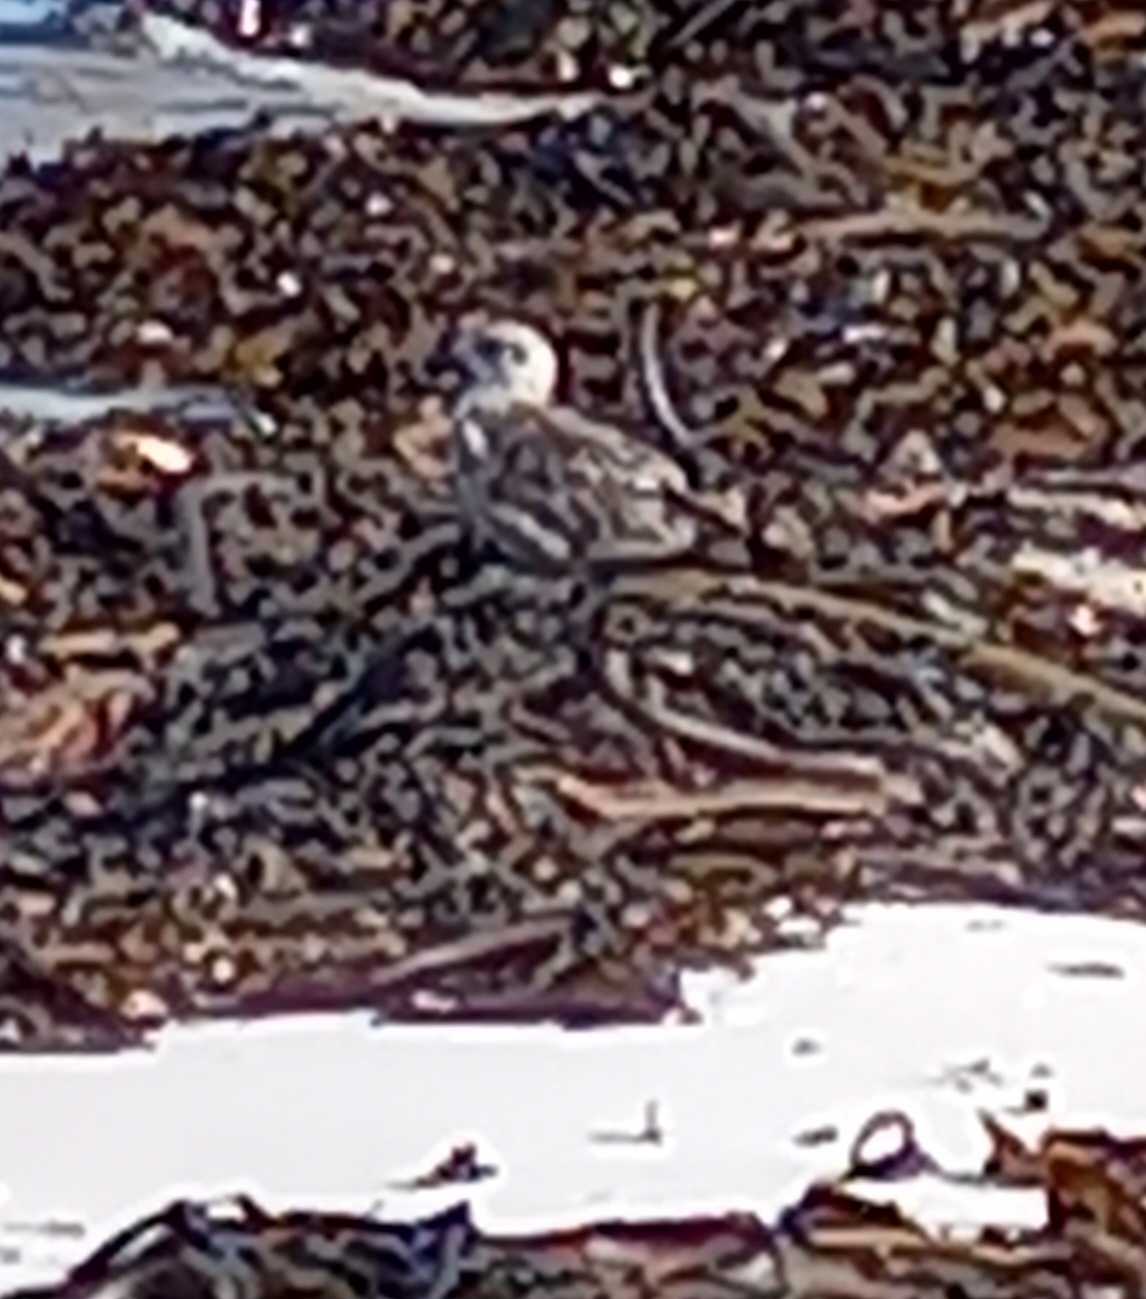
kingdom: Animalia
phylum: Chordata
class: Aves
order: Charadriiformes
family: Laridae
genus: Larus
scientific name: Larus dominicanus
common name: Kelp gull
